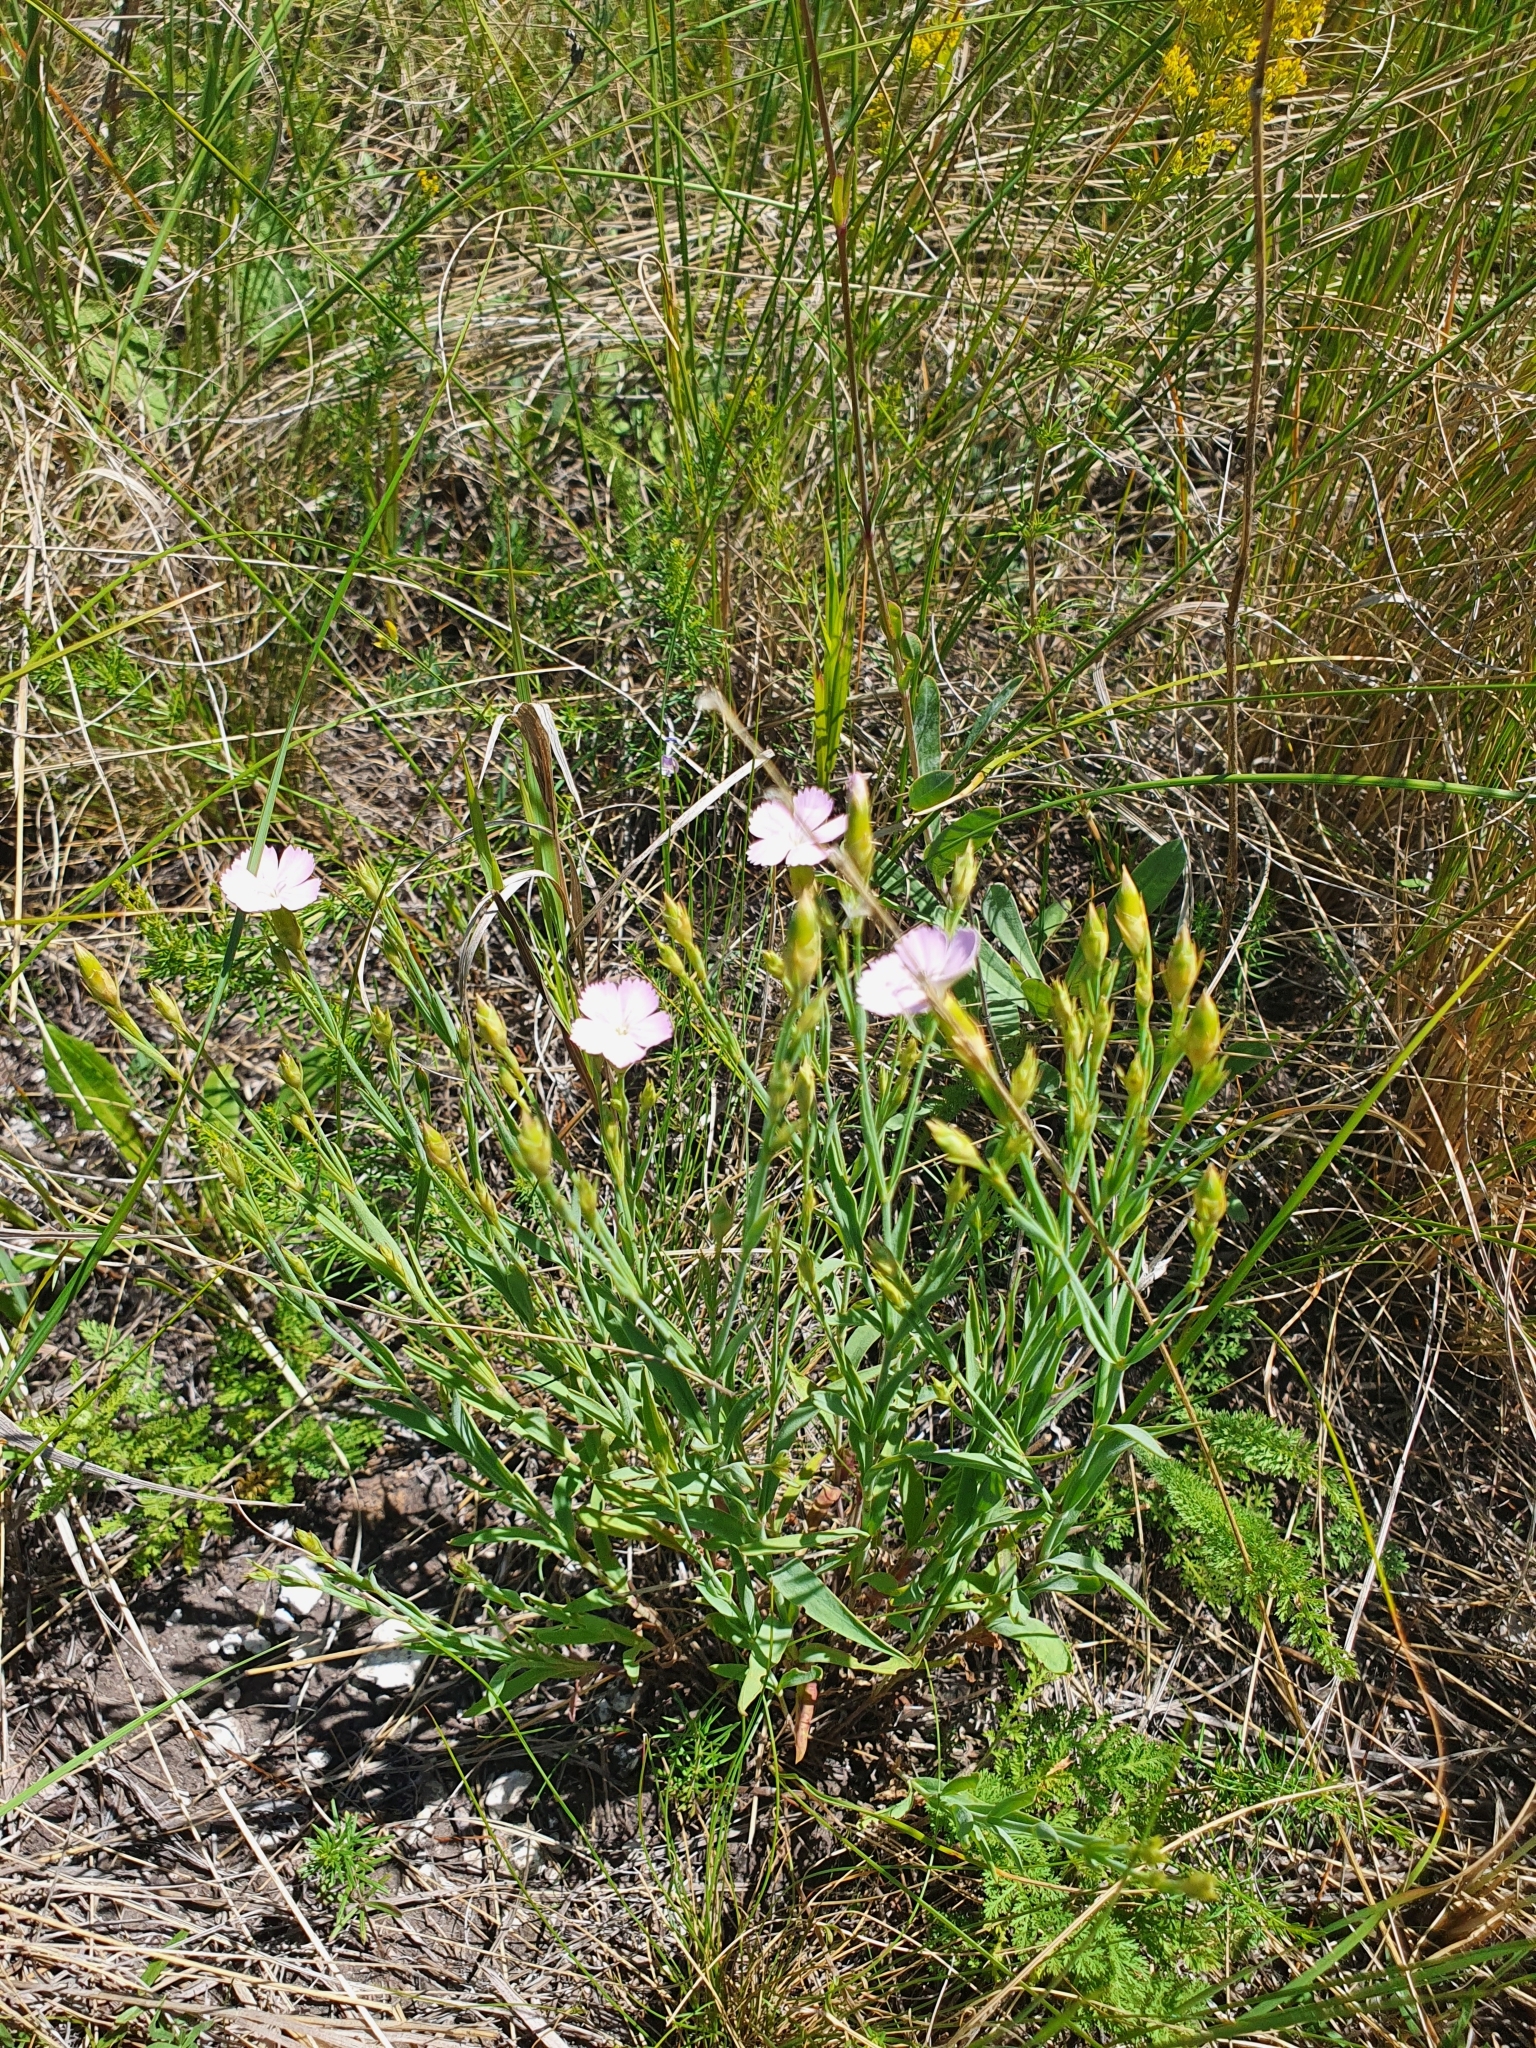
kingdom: Plantae
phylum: Tracheophyta
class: Magnoliopsida
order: Caryophyllales
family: Caryophyllaceae
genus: Dianthus
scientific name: Dianthus campestris
